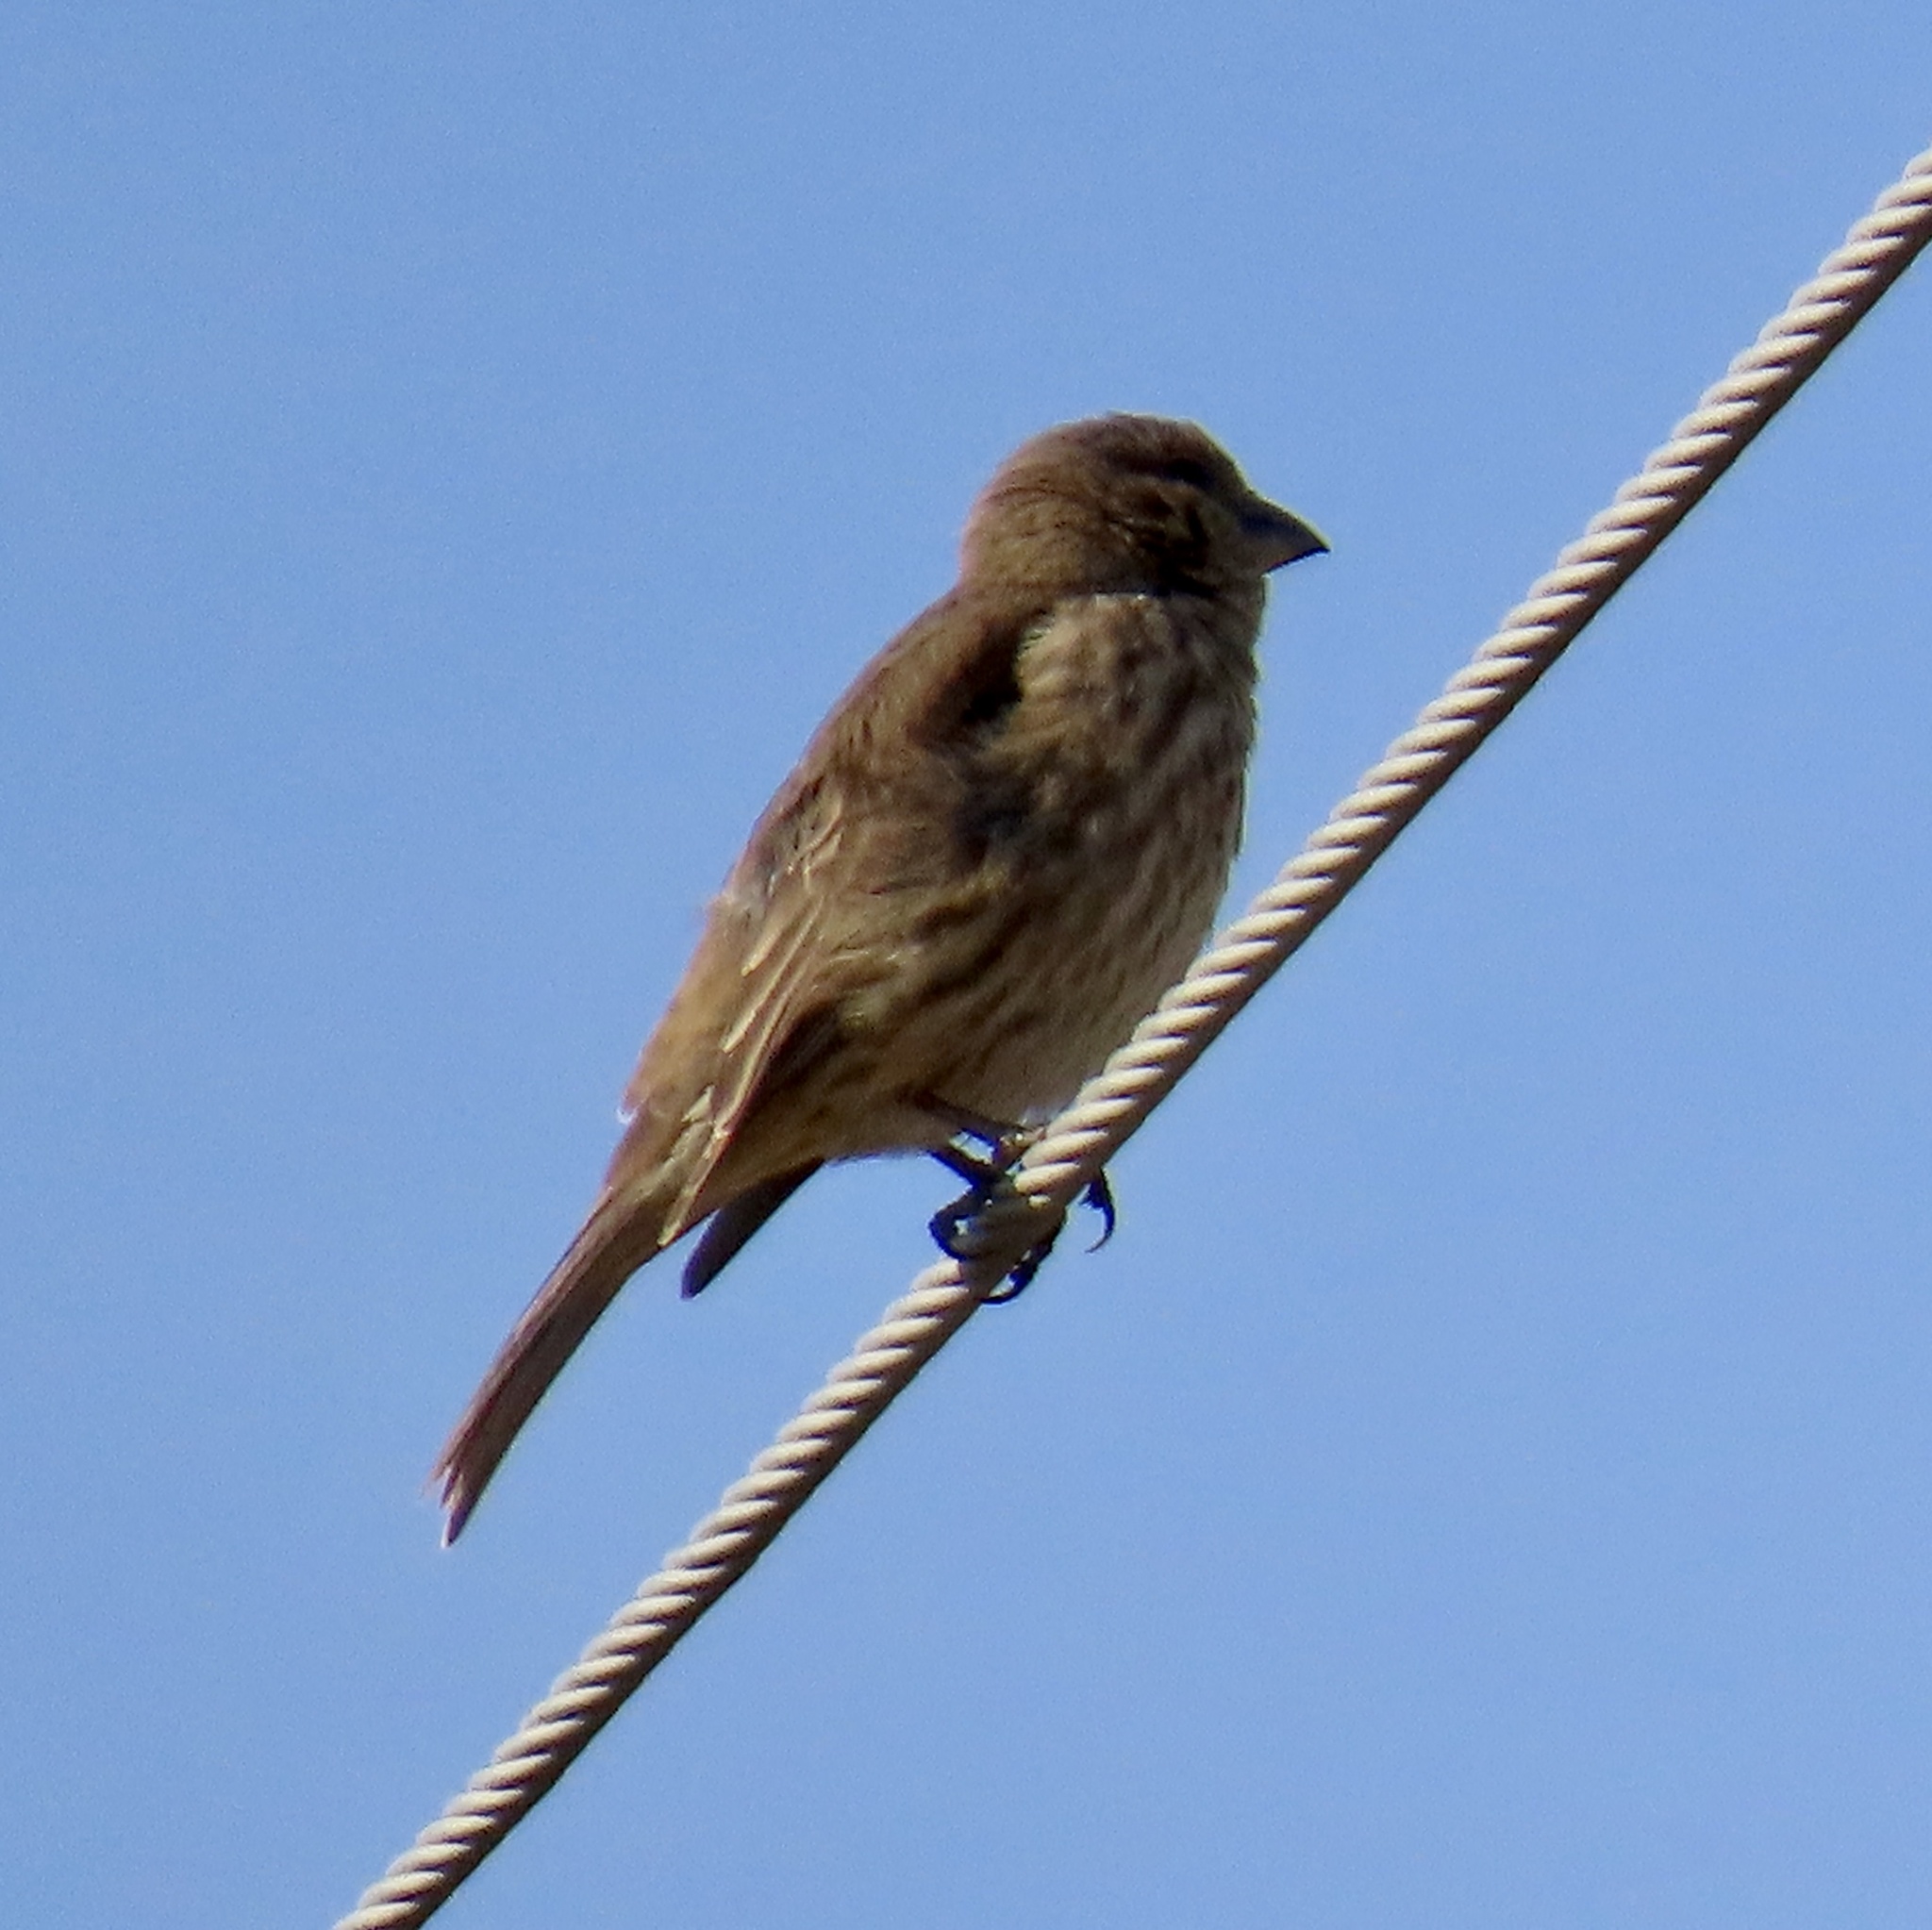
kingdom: Animalia
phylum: Chordata
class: Aves
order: Passeriformes
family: Fringillidae
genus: Haemorhous
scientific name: Haemorhous mexicanus
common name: House finch
